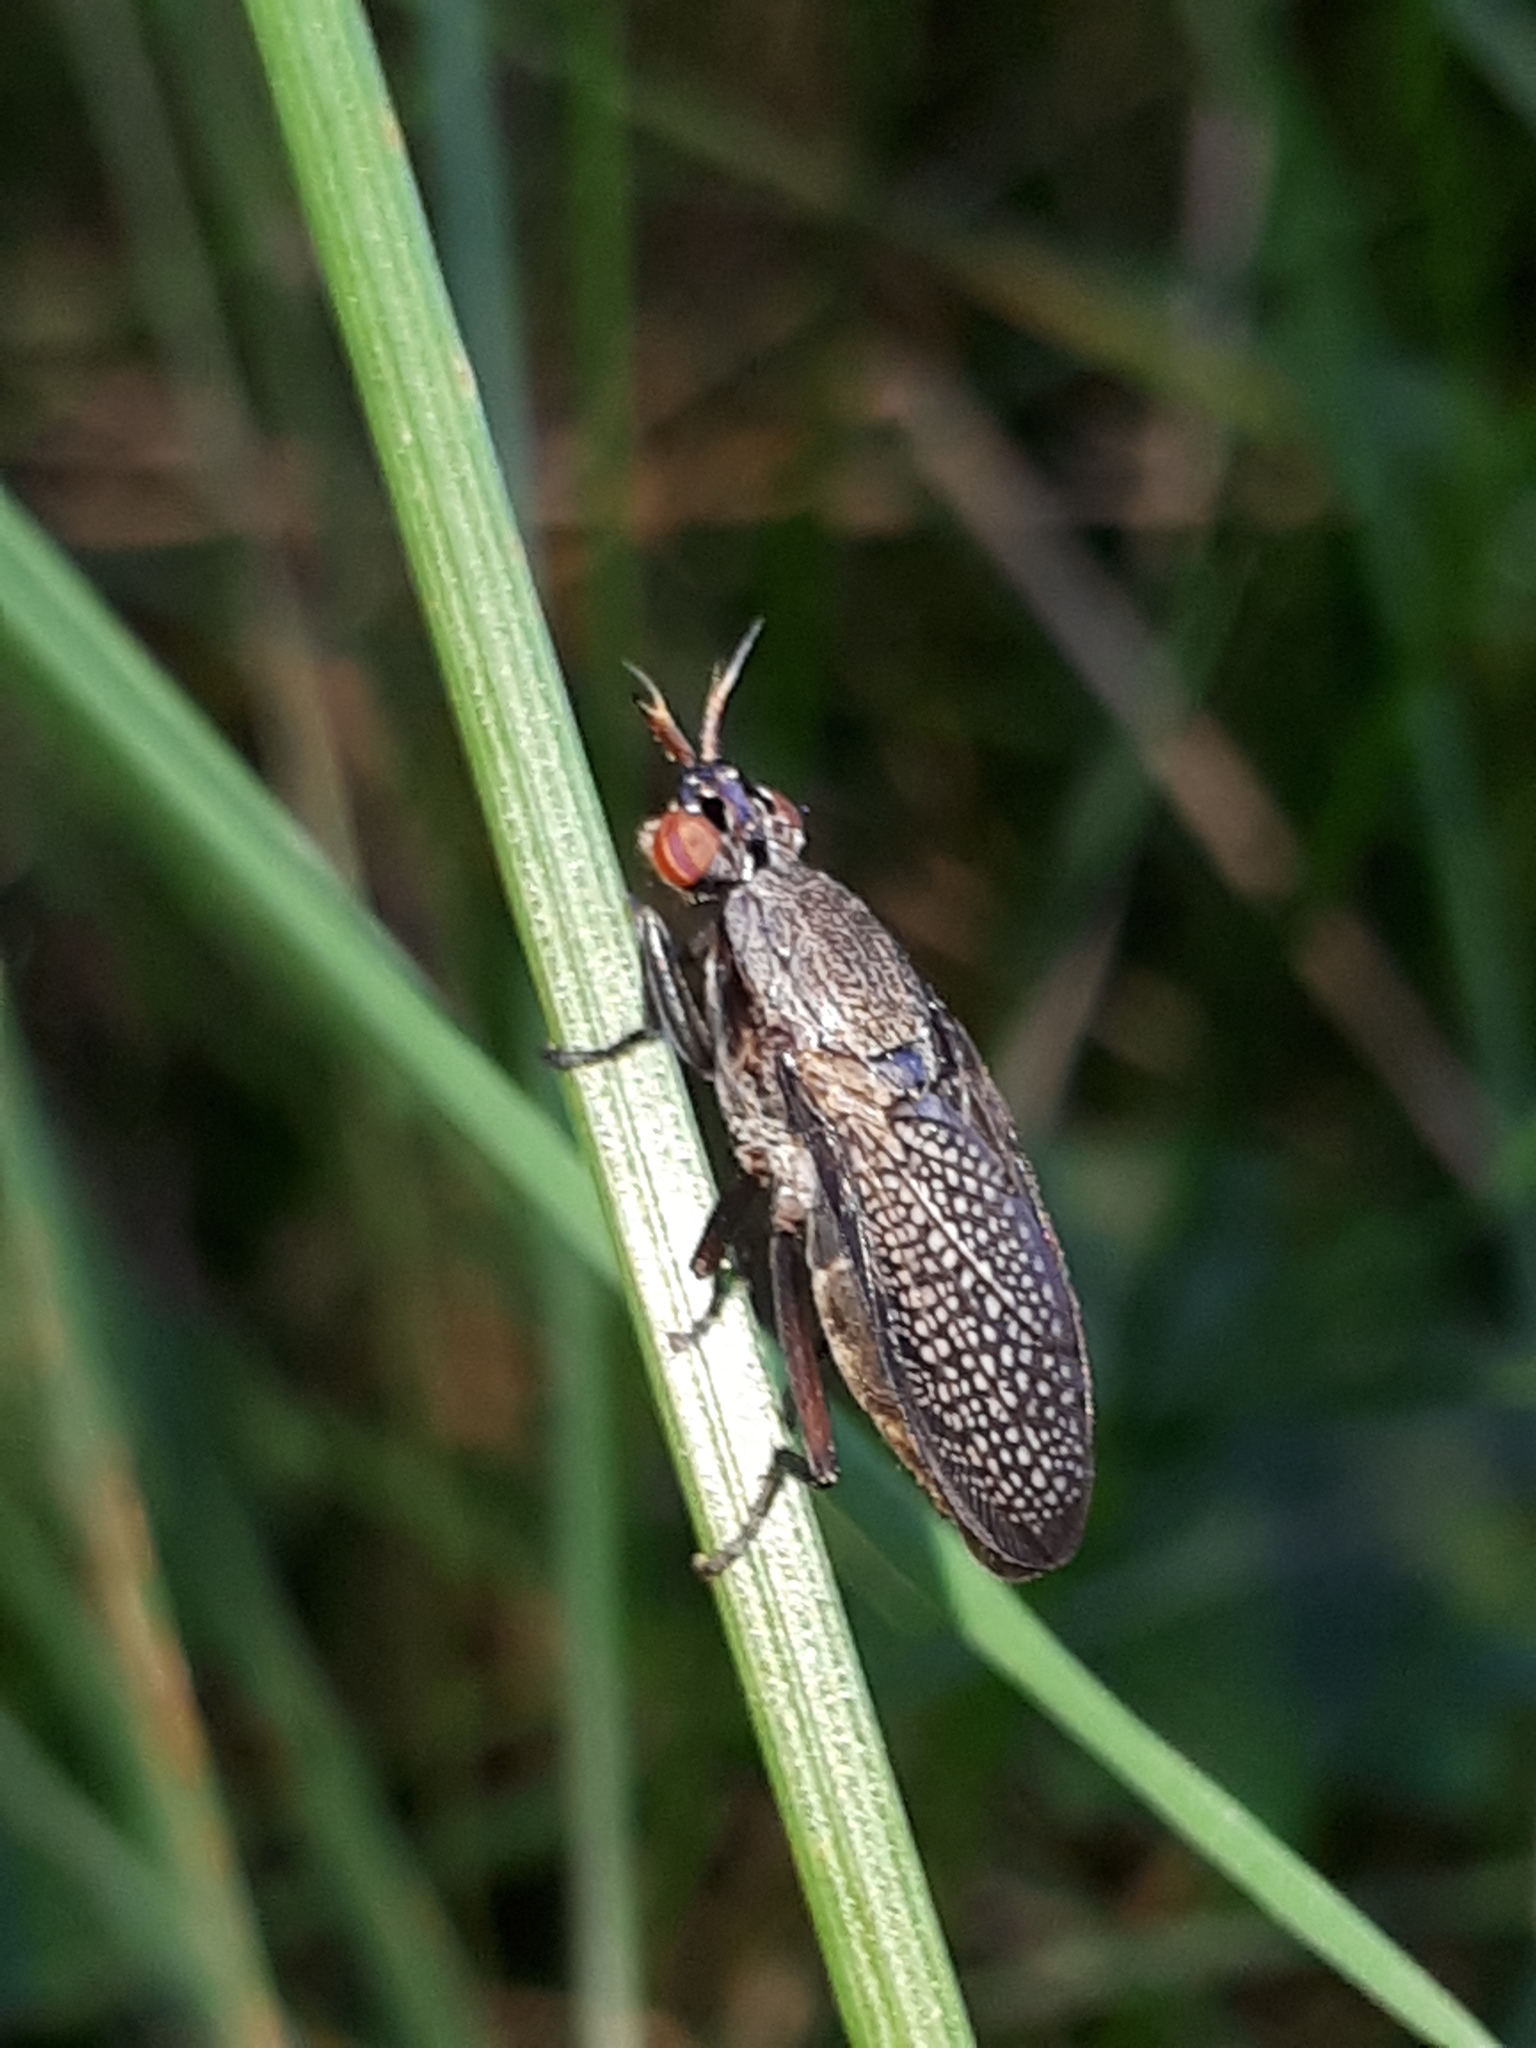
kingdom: Animalia
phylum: Arthropoda
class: Insecta
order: Diptera
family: Sciomyzidae
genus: Coremacera
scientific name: Coremacera marginata
